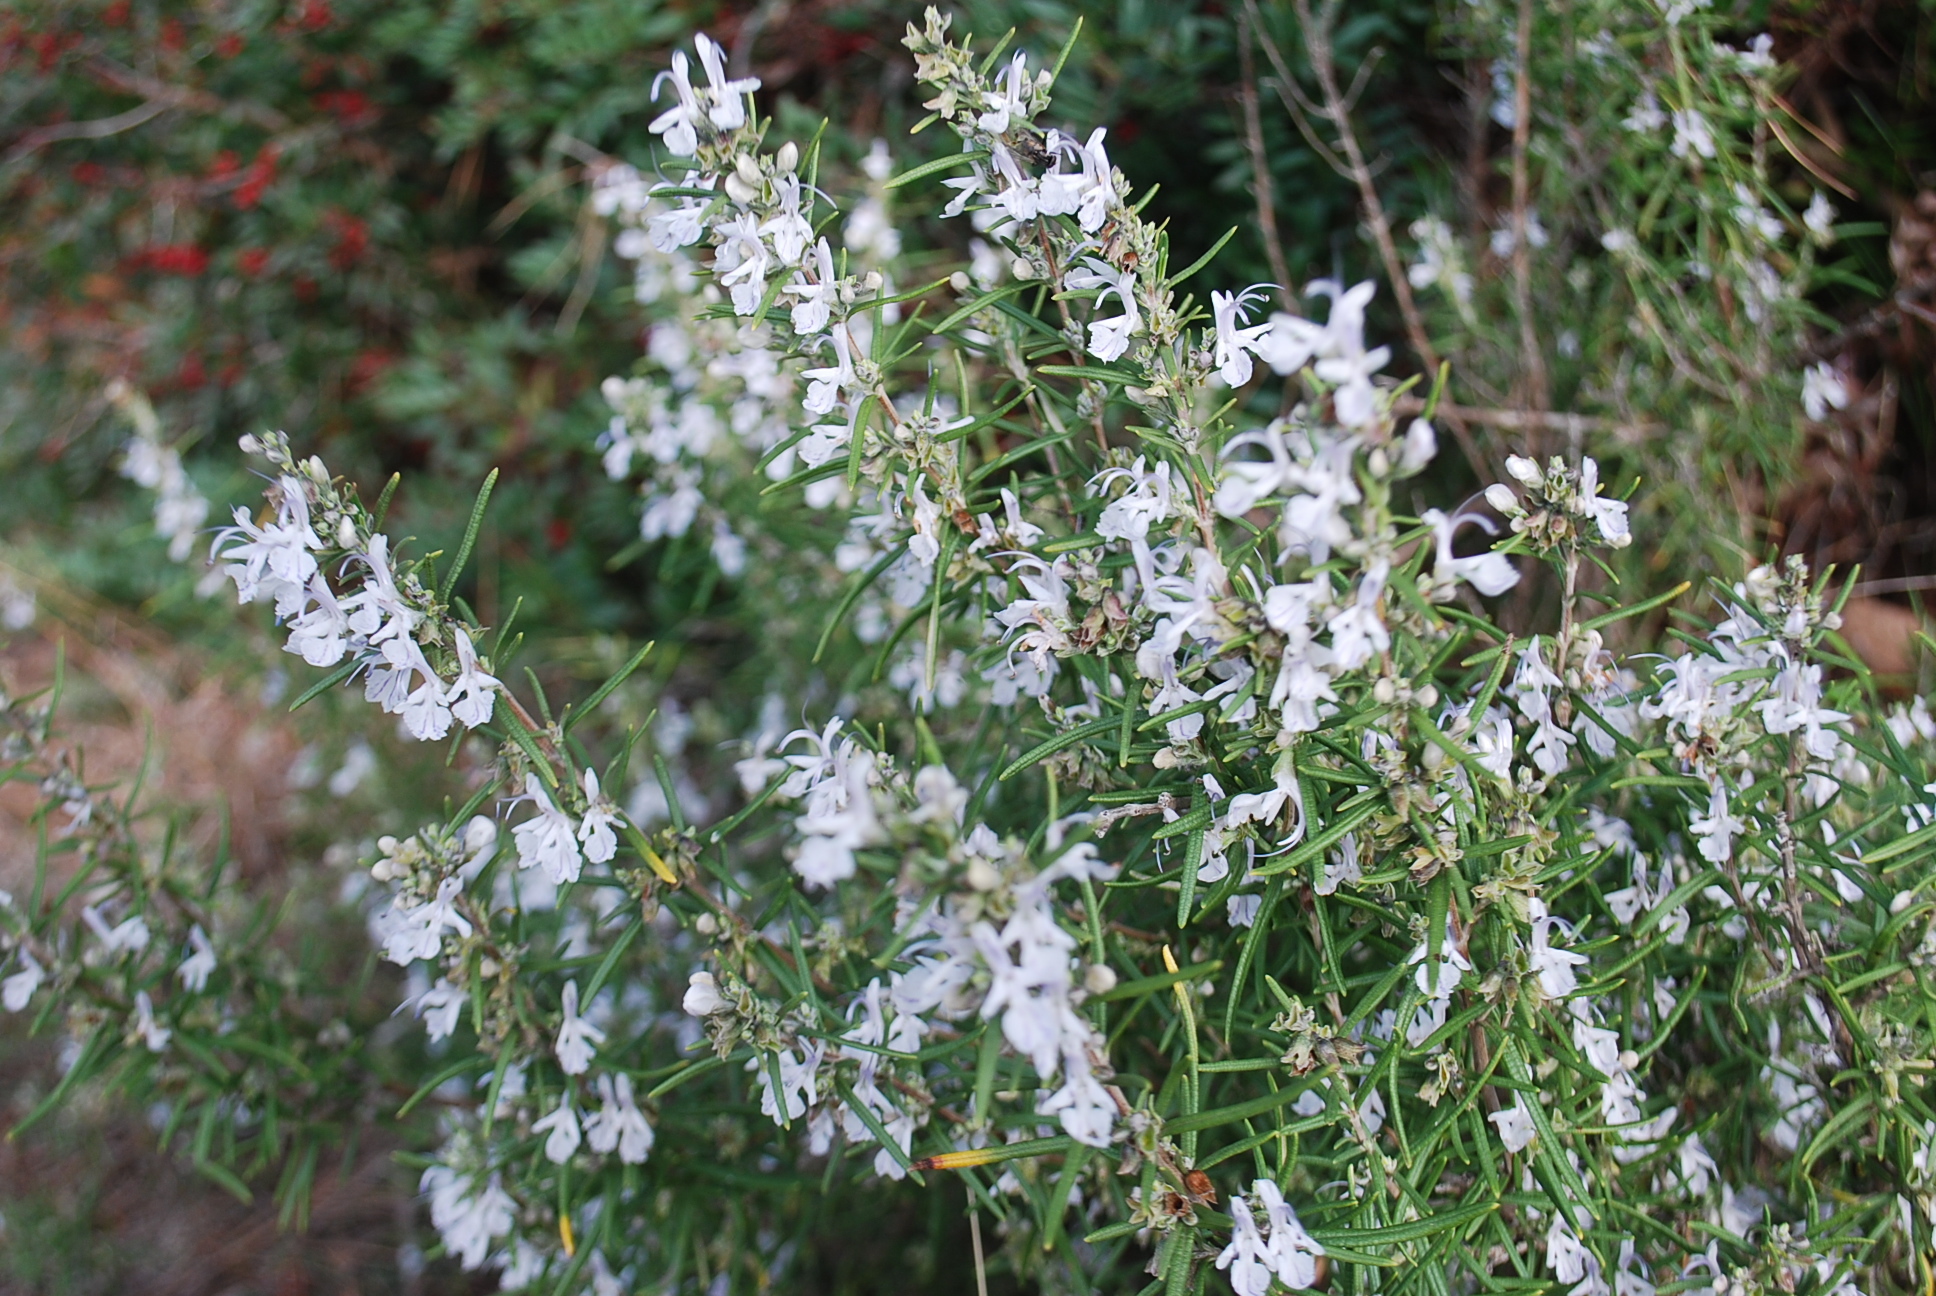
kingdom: Plantae
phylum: Tracheophyta
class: Magnoliopsida
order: Lamiales
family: Lamiaceae
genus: Salvia
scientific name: Salvia rosmarinus
